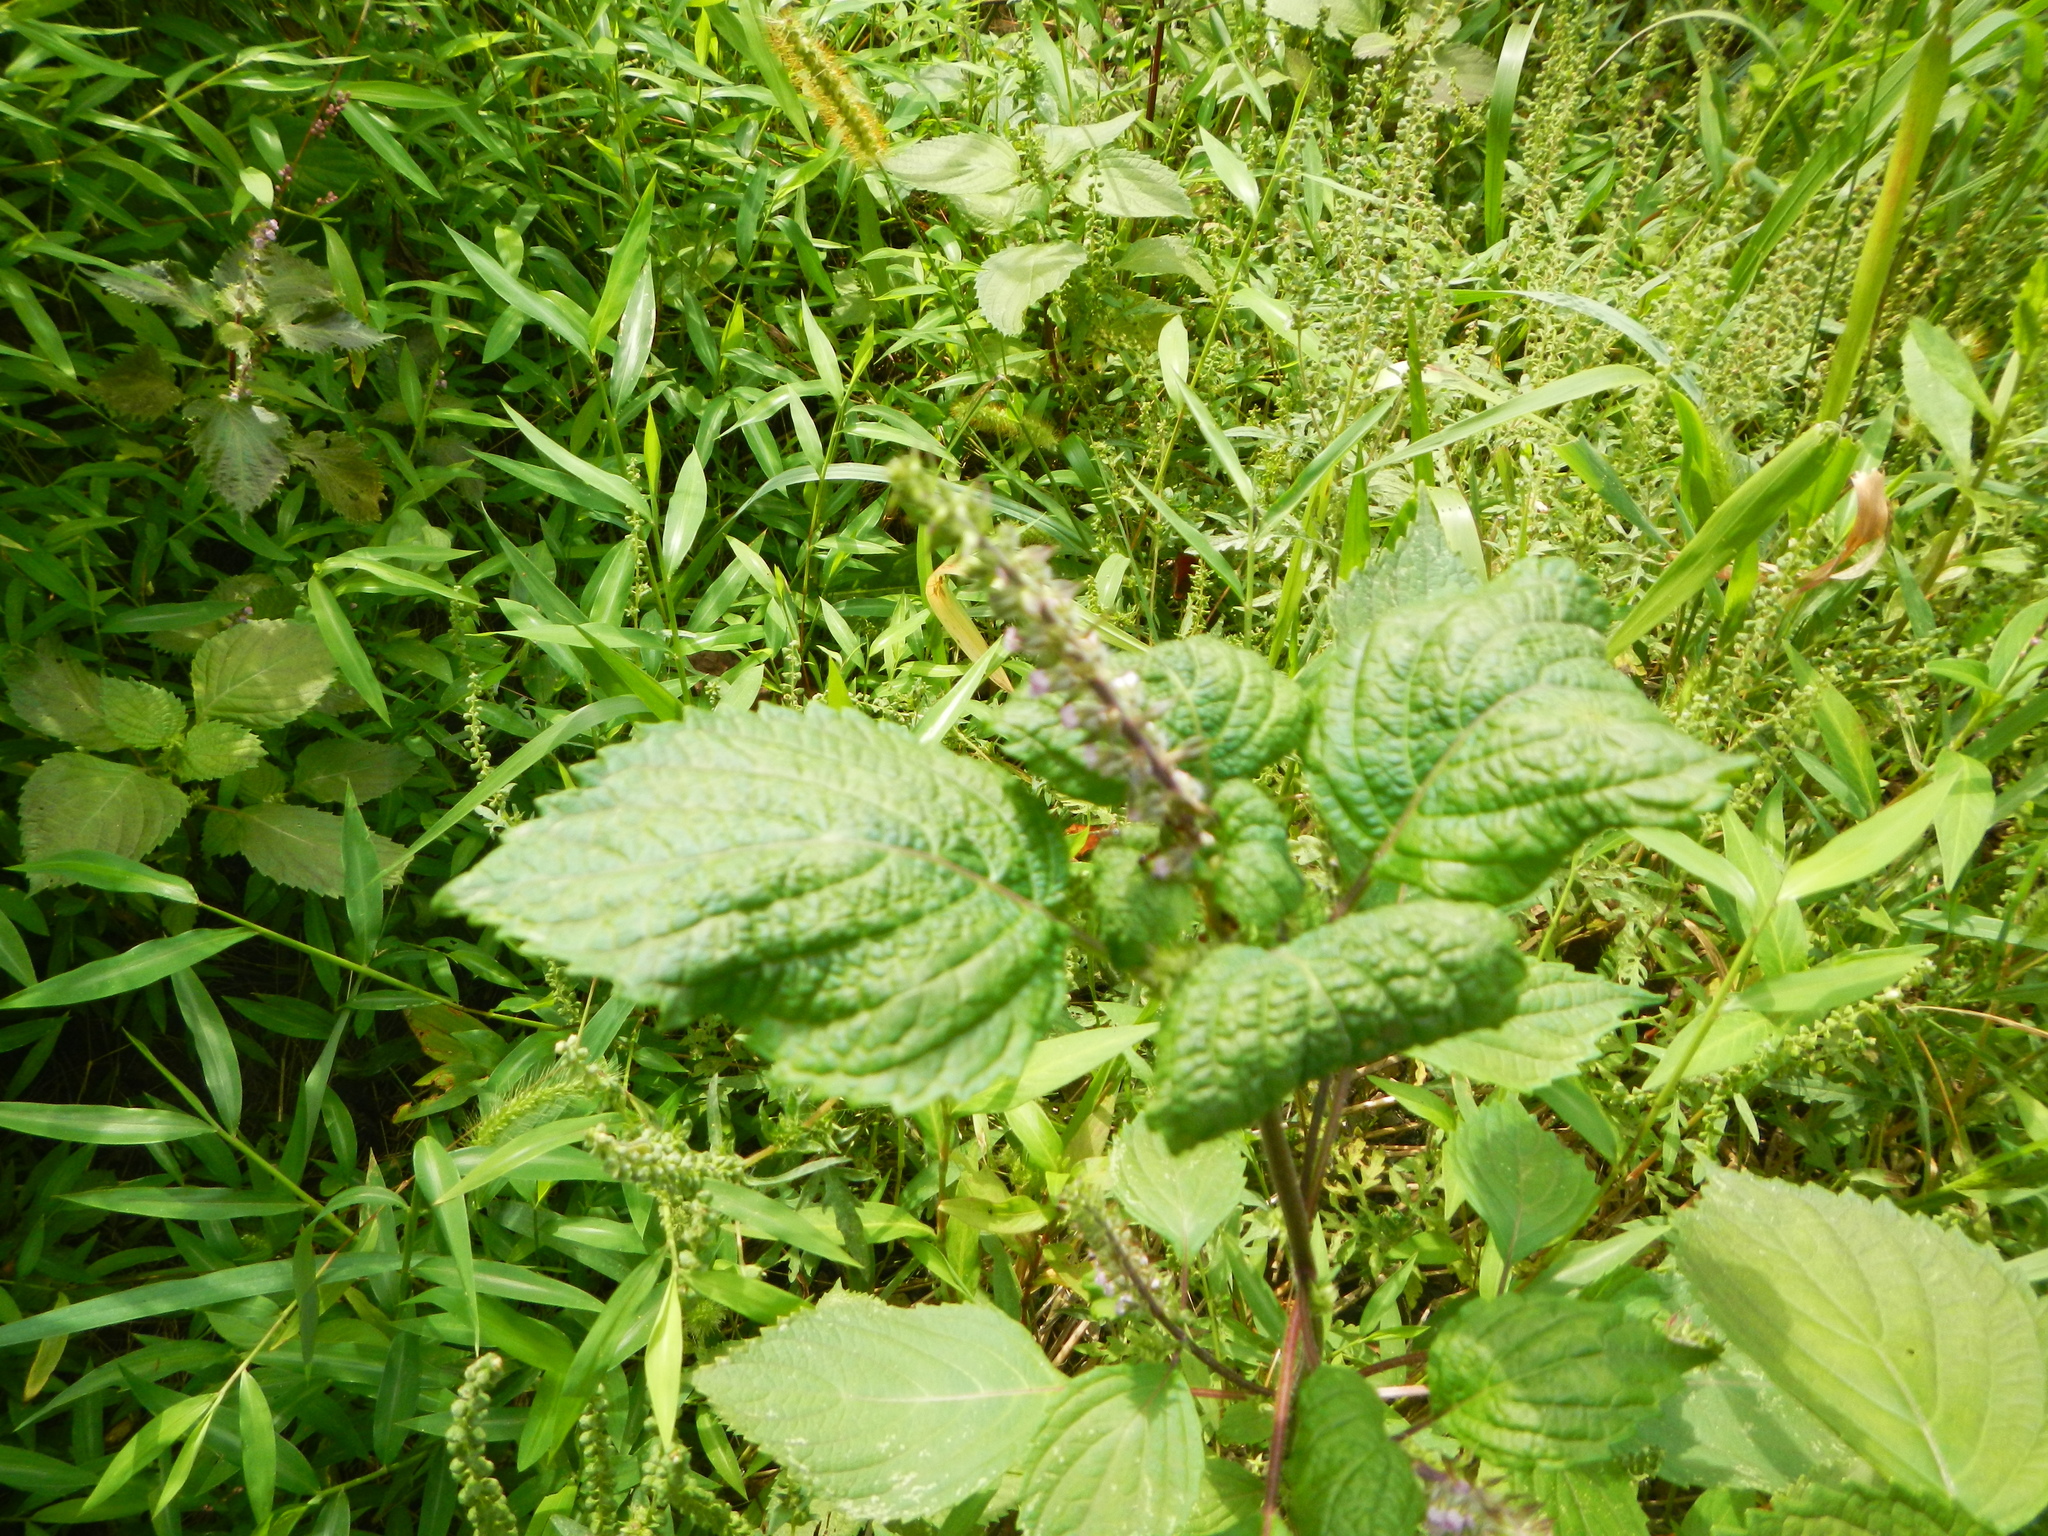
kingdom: Plantae
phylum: Tracheophyta
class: Magnoliopsida
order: Lamiales
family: Lamiaceae
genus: Perilla
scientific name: Perilla frutescens
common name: Perilla
